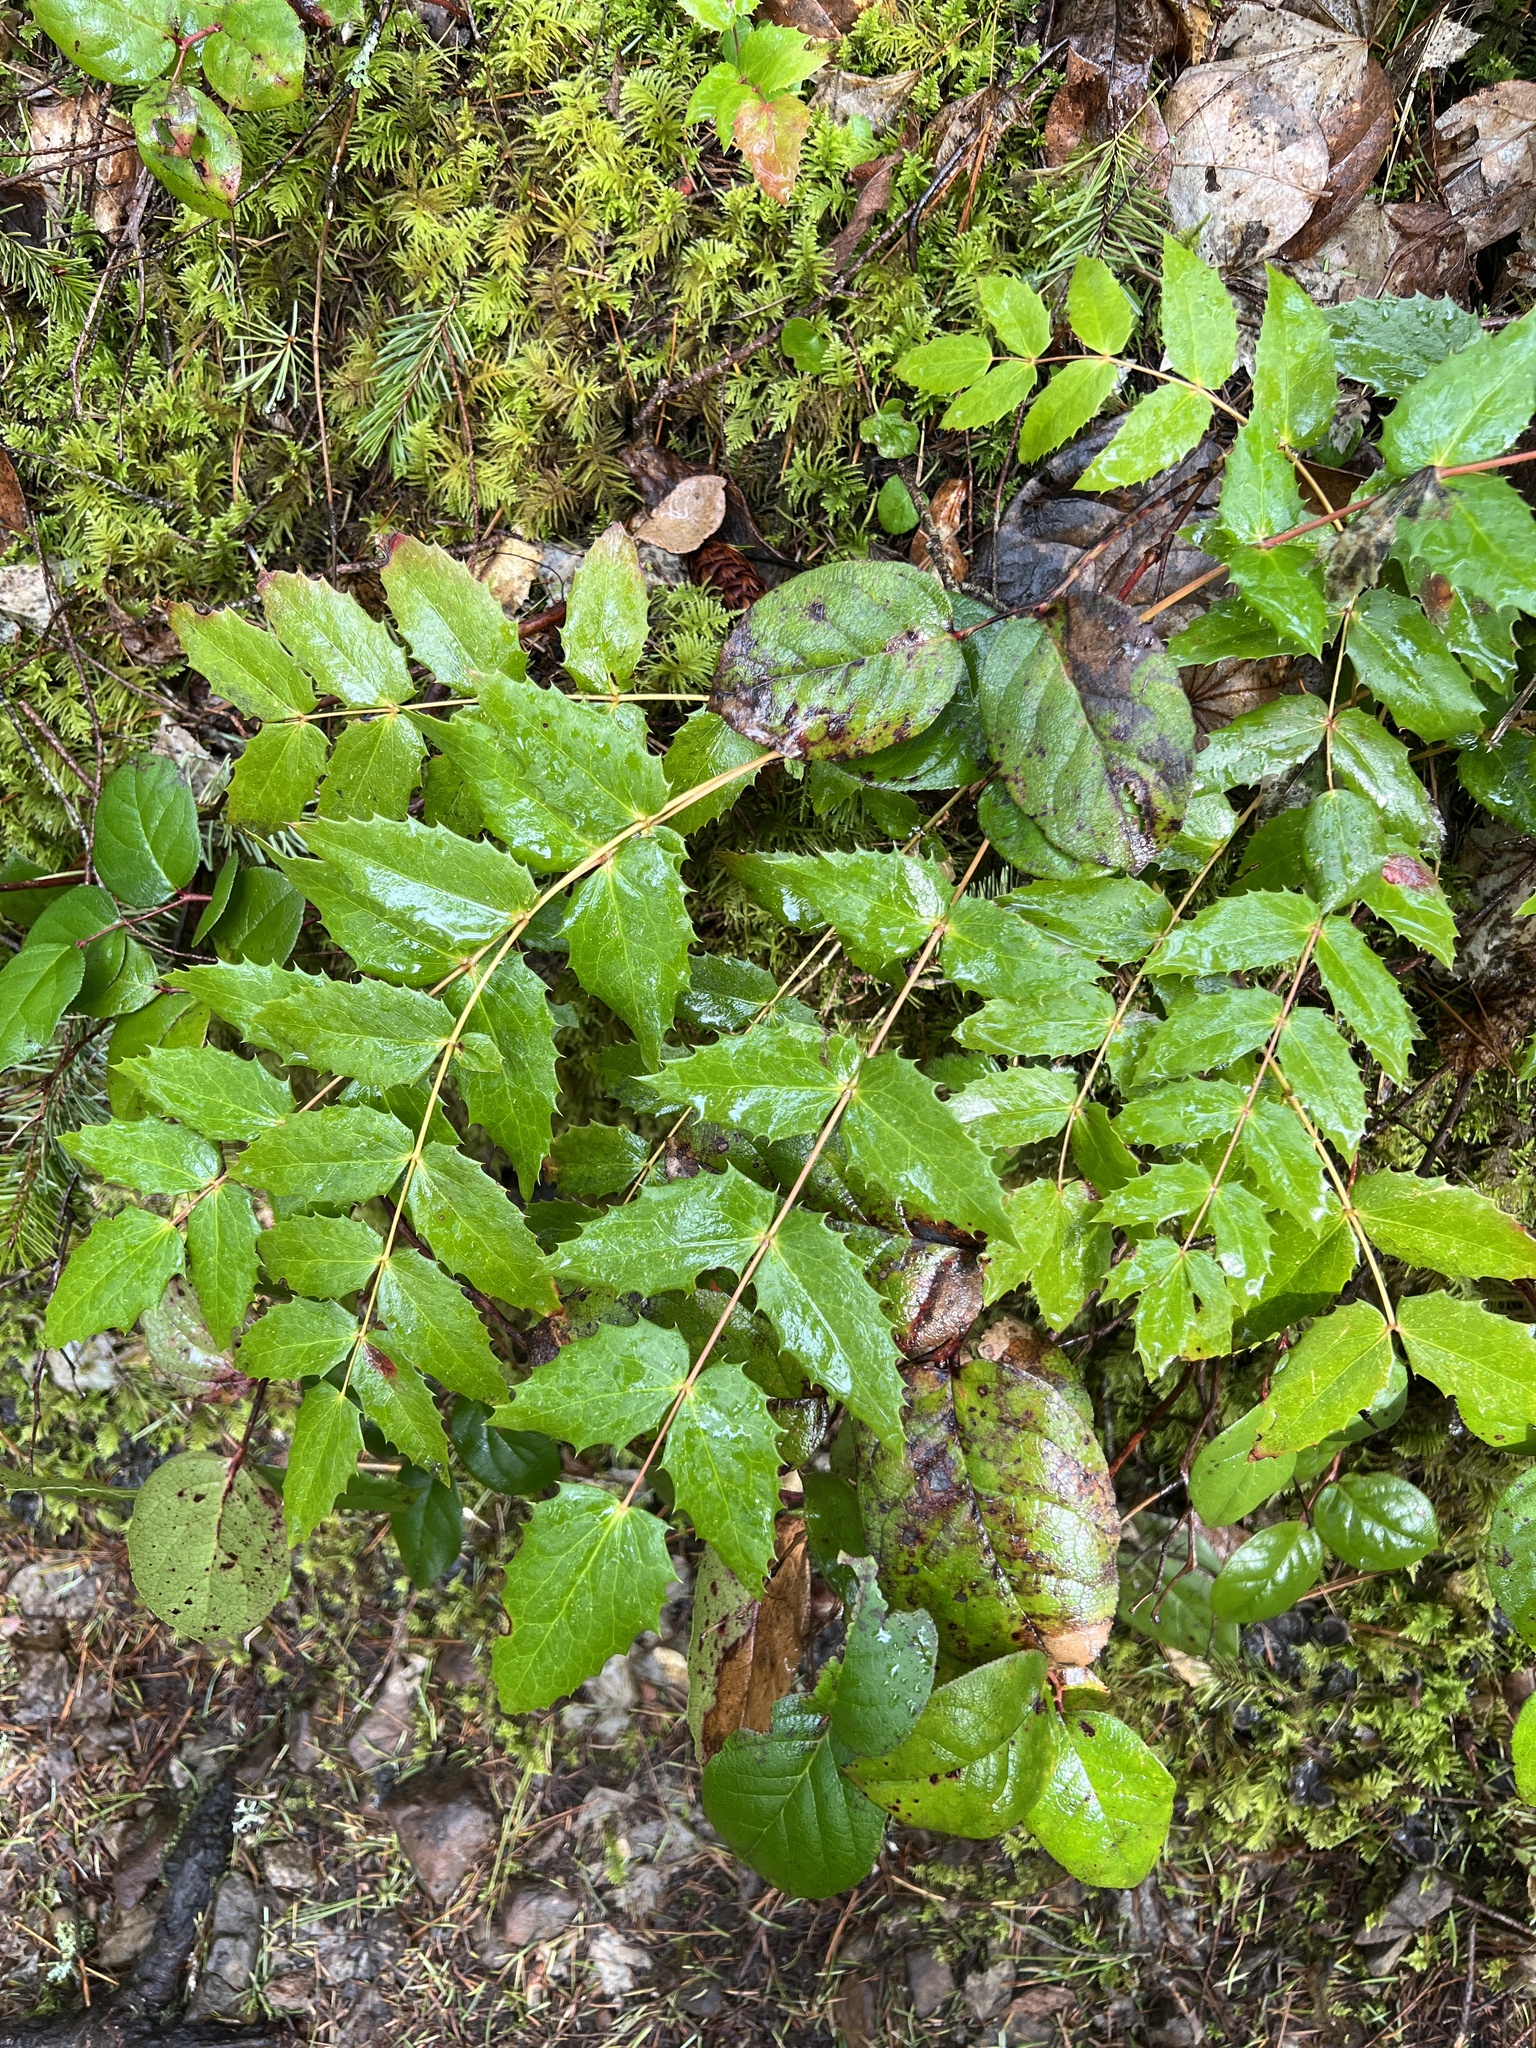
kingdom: Plantae
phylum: Tracheophyta
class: Magnoliopsida
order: Ranunculales
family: Berberidaceae
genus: Mahonia
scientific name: Mahonia nervosa
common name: Cascade oregon-grape
